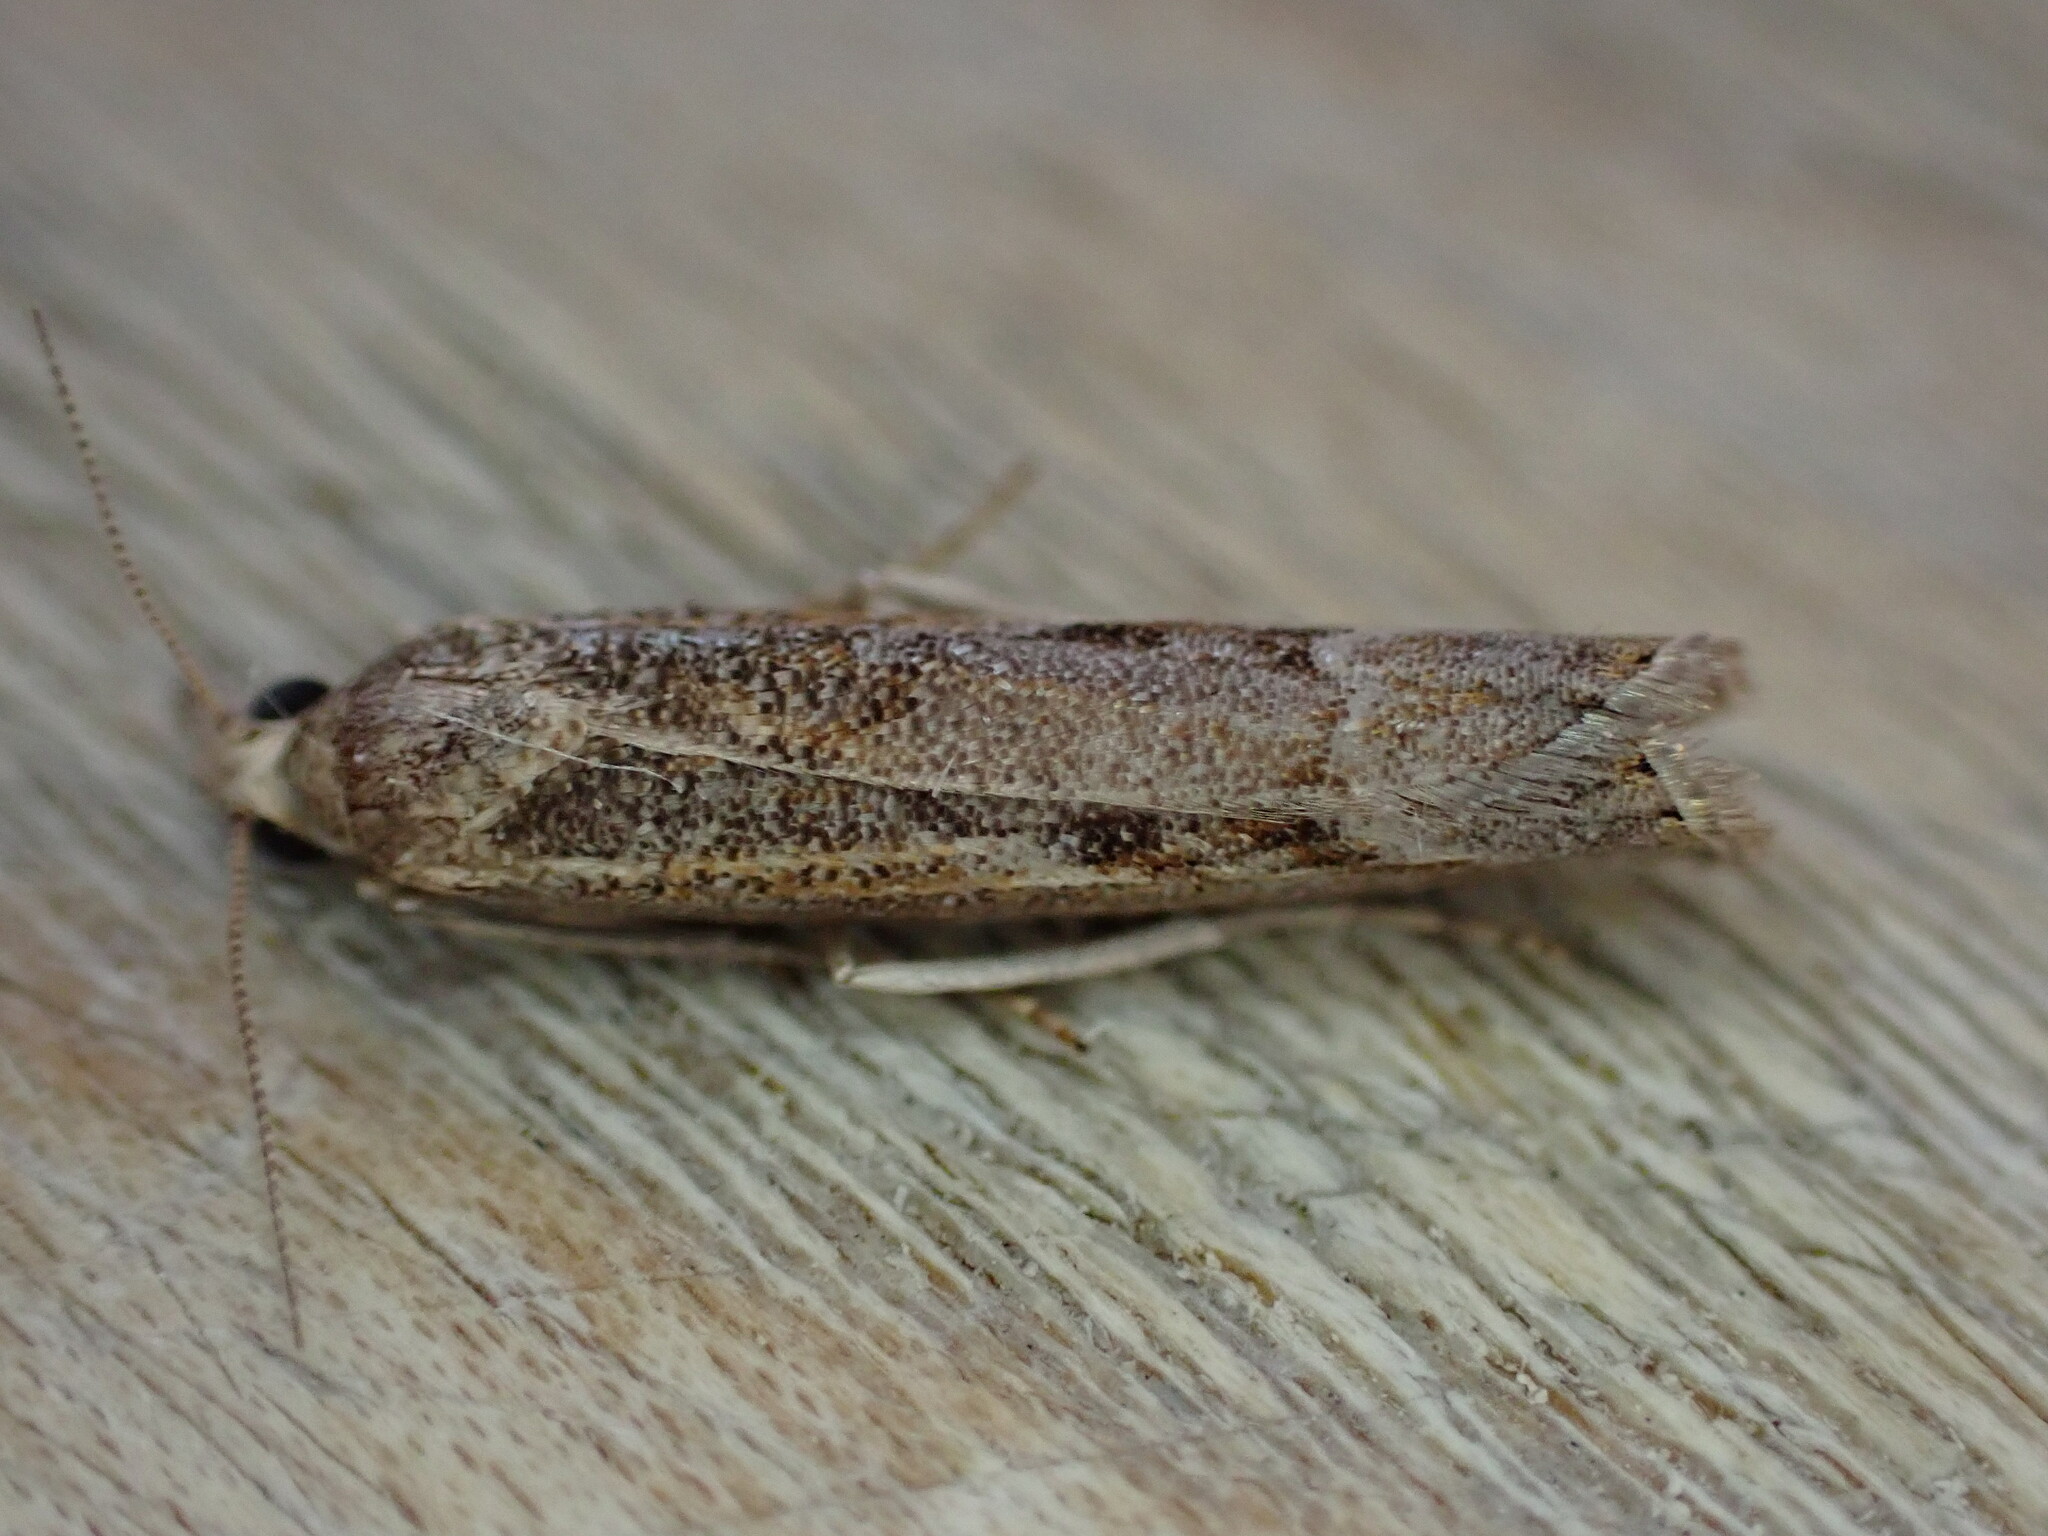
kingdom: Animalia
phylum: Arthropoda
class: Insecta
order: Lepidoptera
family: Crambidae
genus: Agriphila
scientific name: Agriphila geniculea
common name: Elbow-stripe grass-veneer
